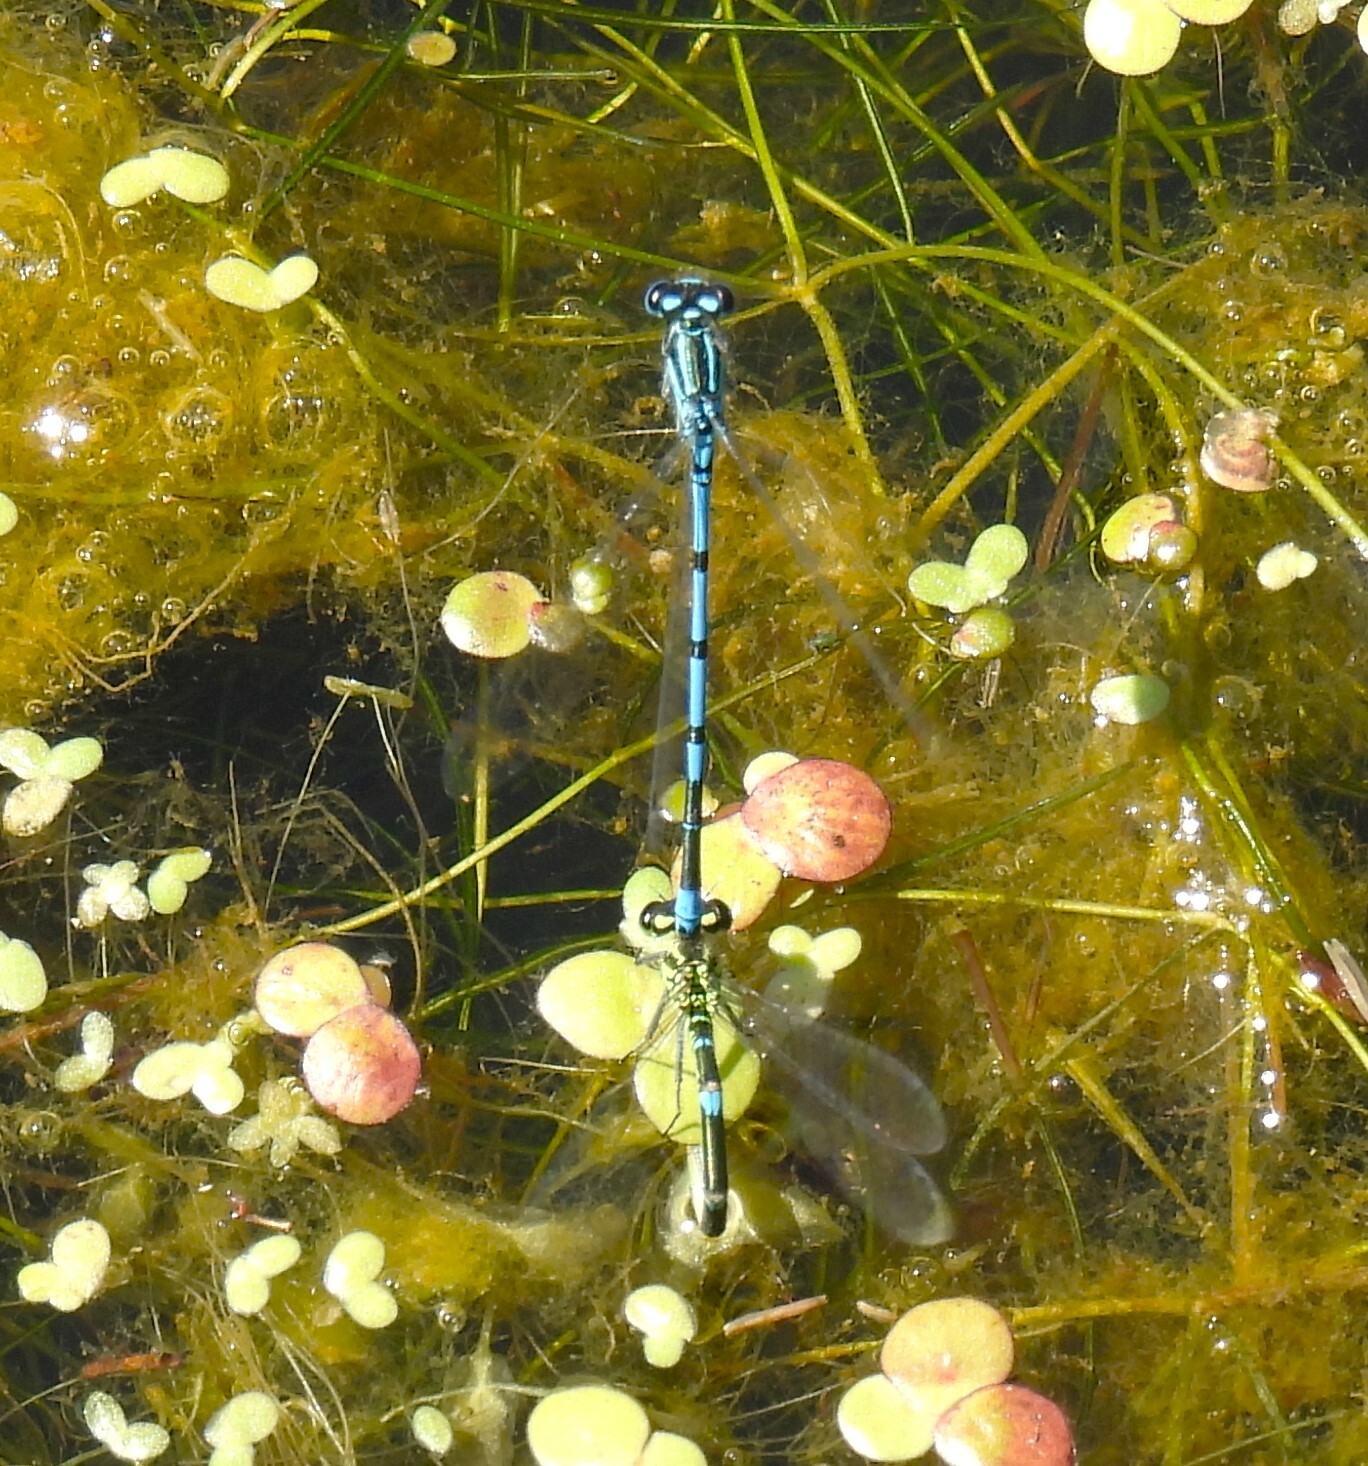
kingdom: Animalia
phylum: Arthropoda
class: Insecta
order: Odonata
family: Coenagrionidae
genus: Coenagrion
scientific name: Coenagrion puella
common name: Azure damselfly
